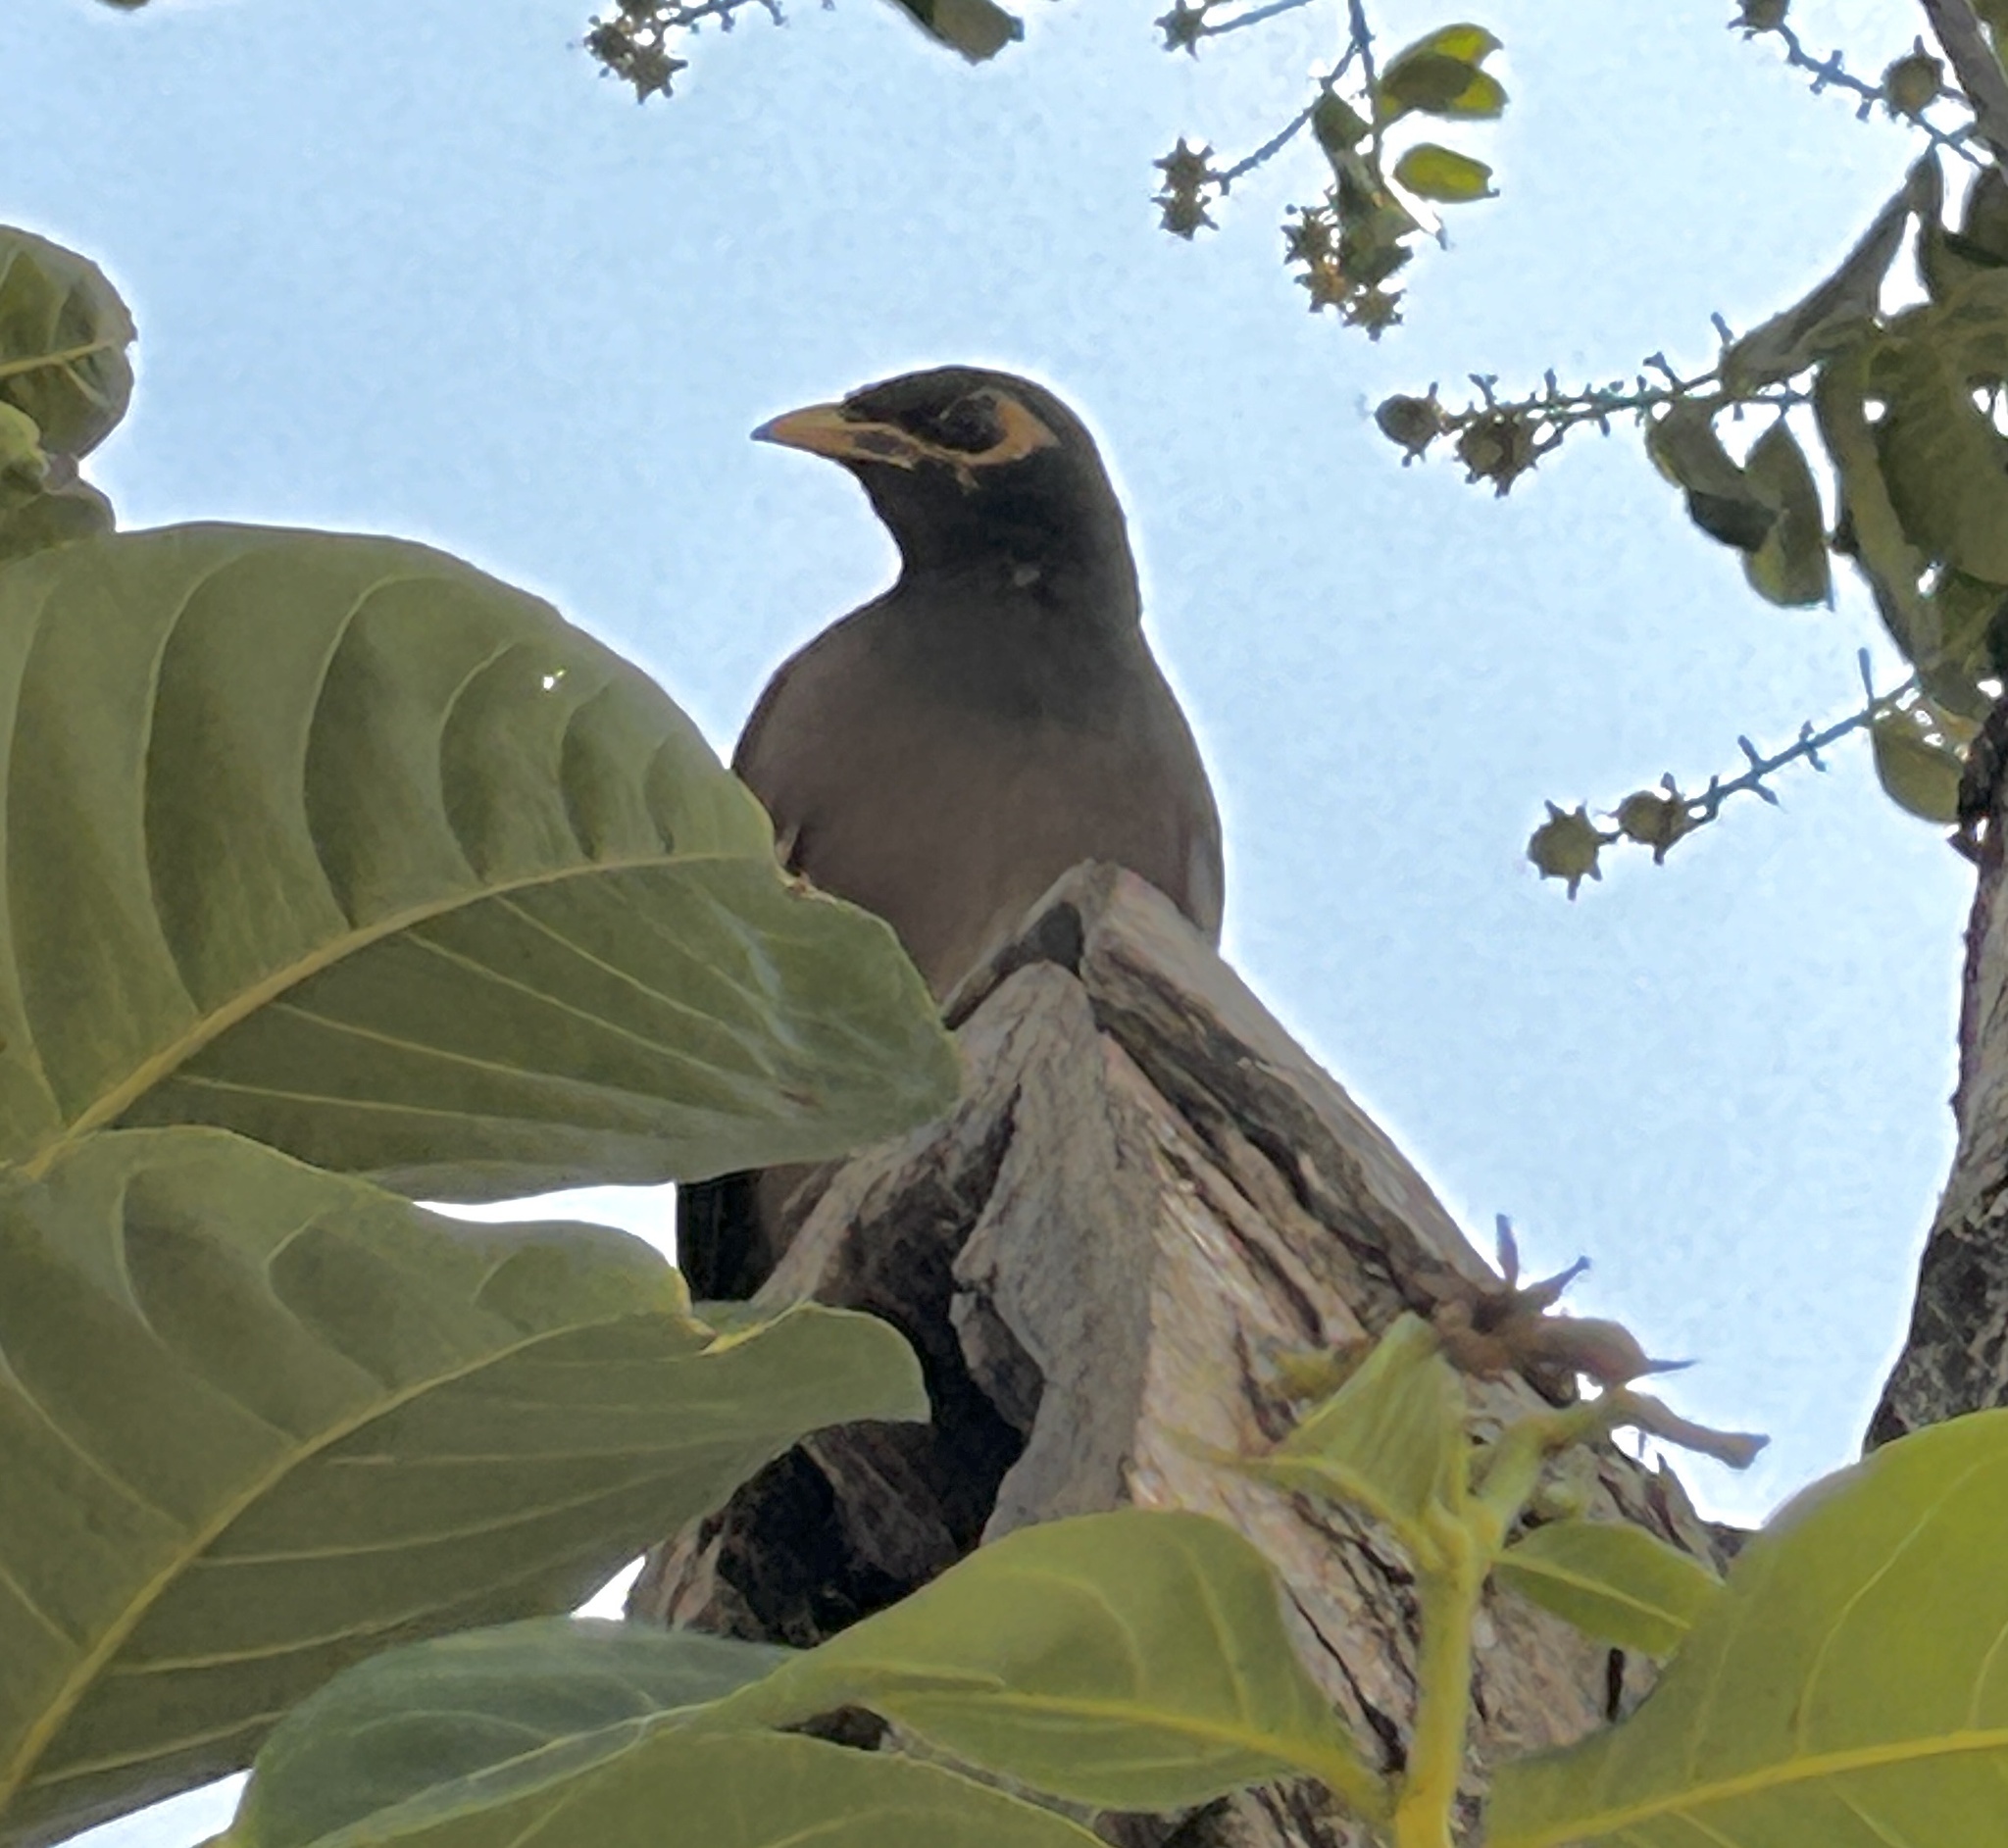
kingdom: Animalia
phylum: Chordata
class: Aves
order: Passeriformes
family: Sturnidae
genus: Acridotheres
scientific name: Acridotheres tristis
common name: Common myna
